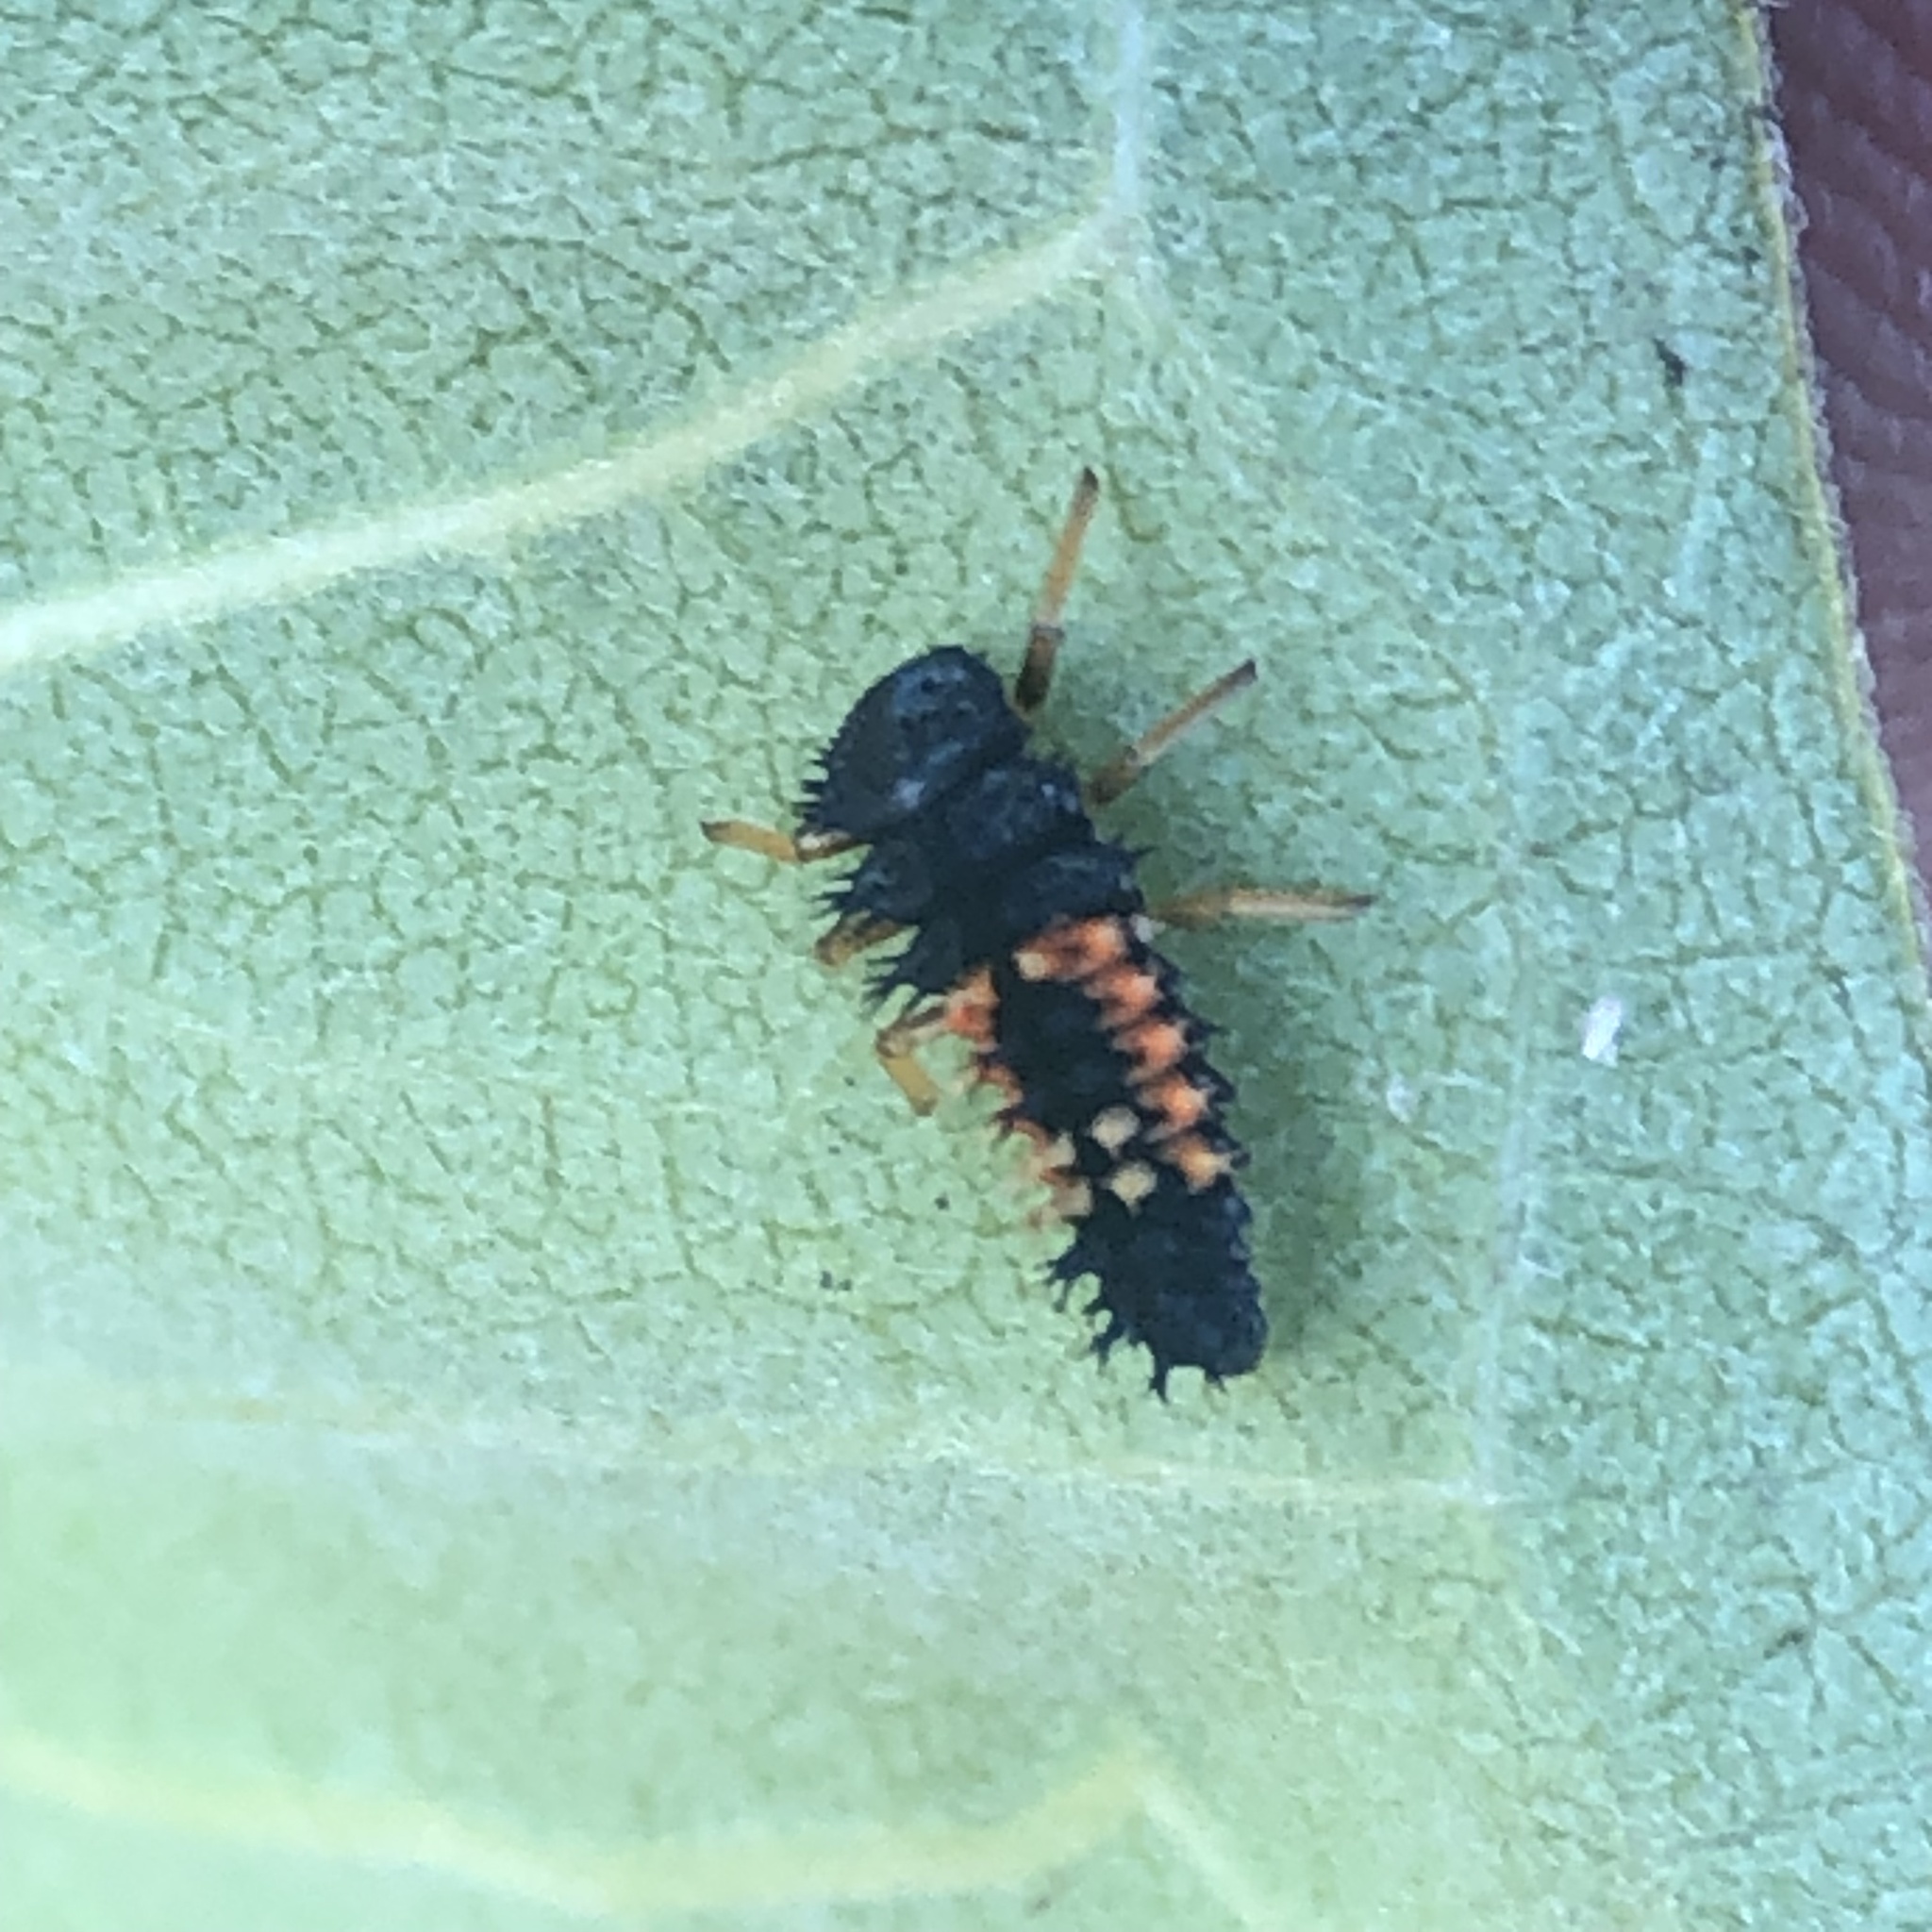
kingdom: Animalia
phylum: Arthropoda
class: Insecta
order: Coleoptera
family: Coccinellidae
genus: Harmonia
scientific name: Harmonia axyridis
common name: Harlequin ladybird
